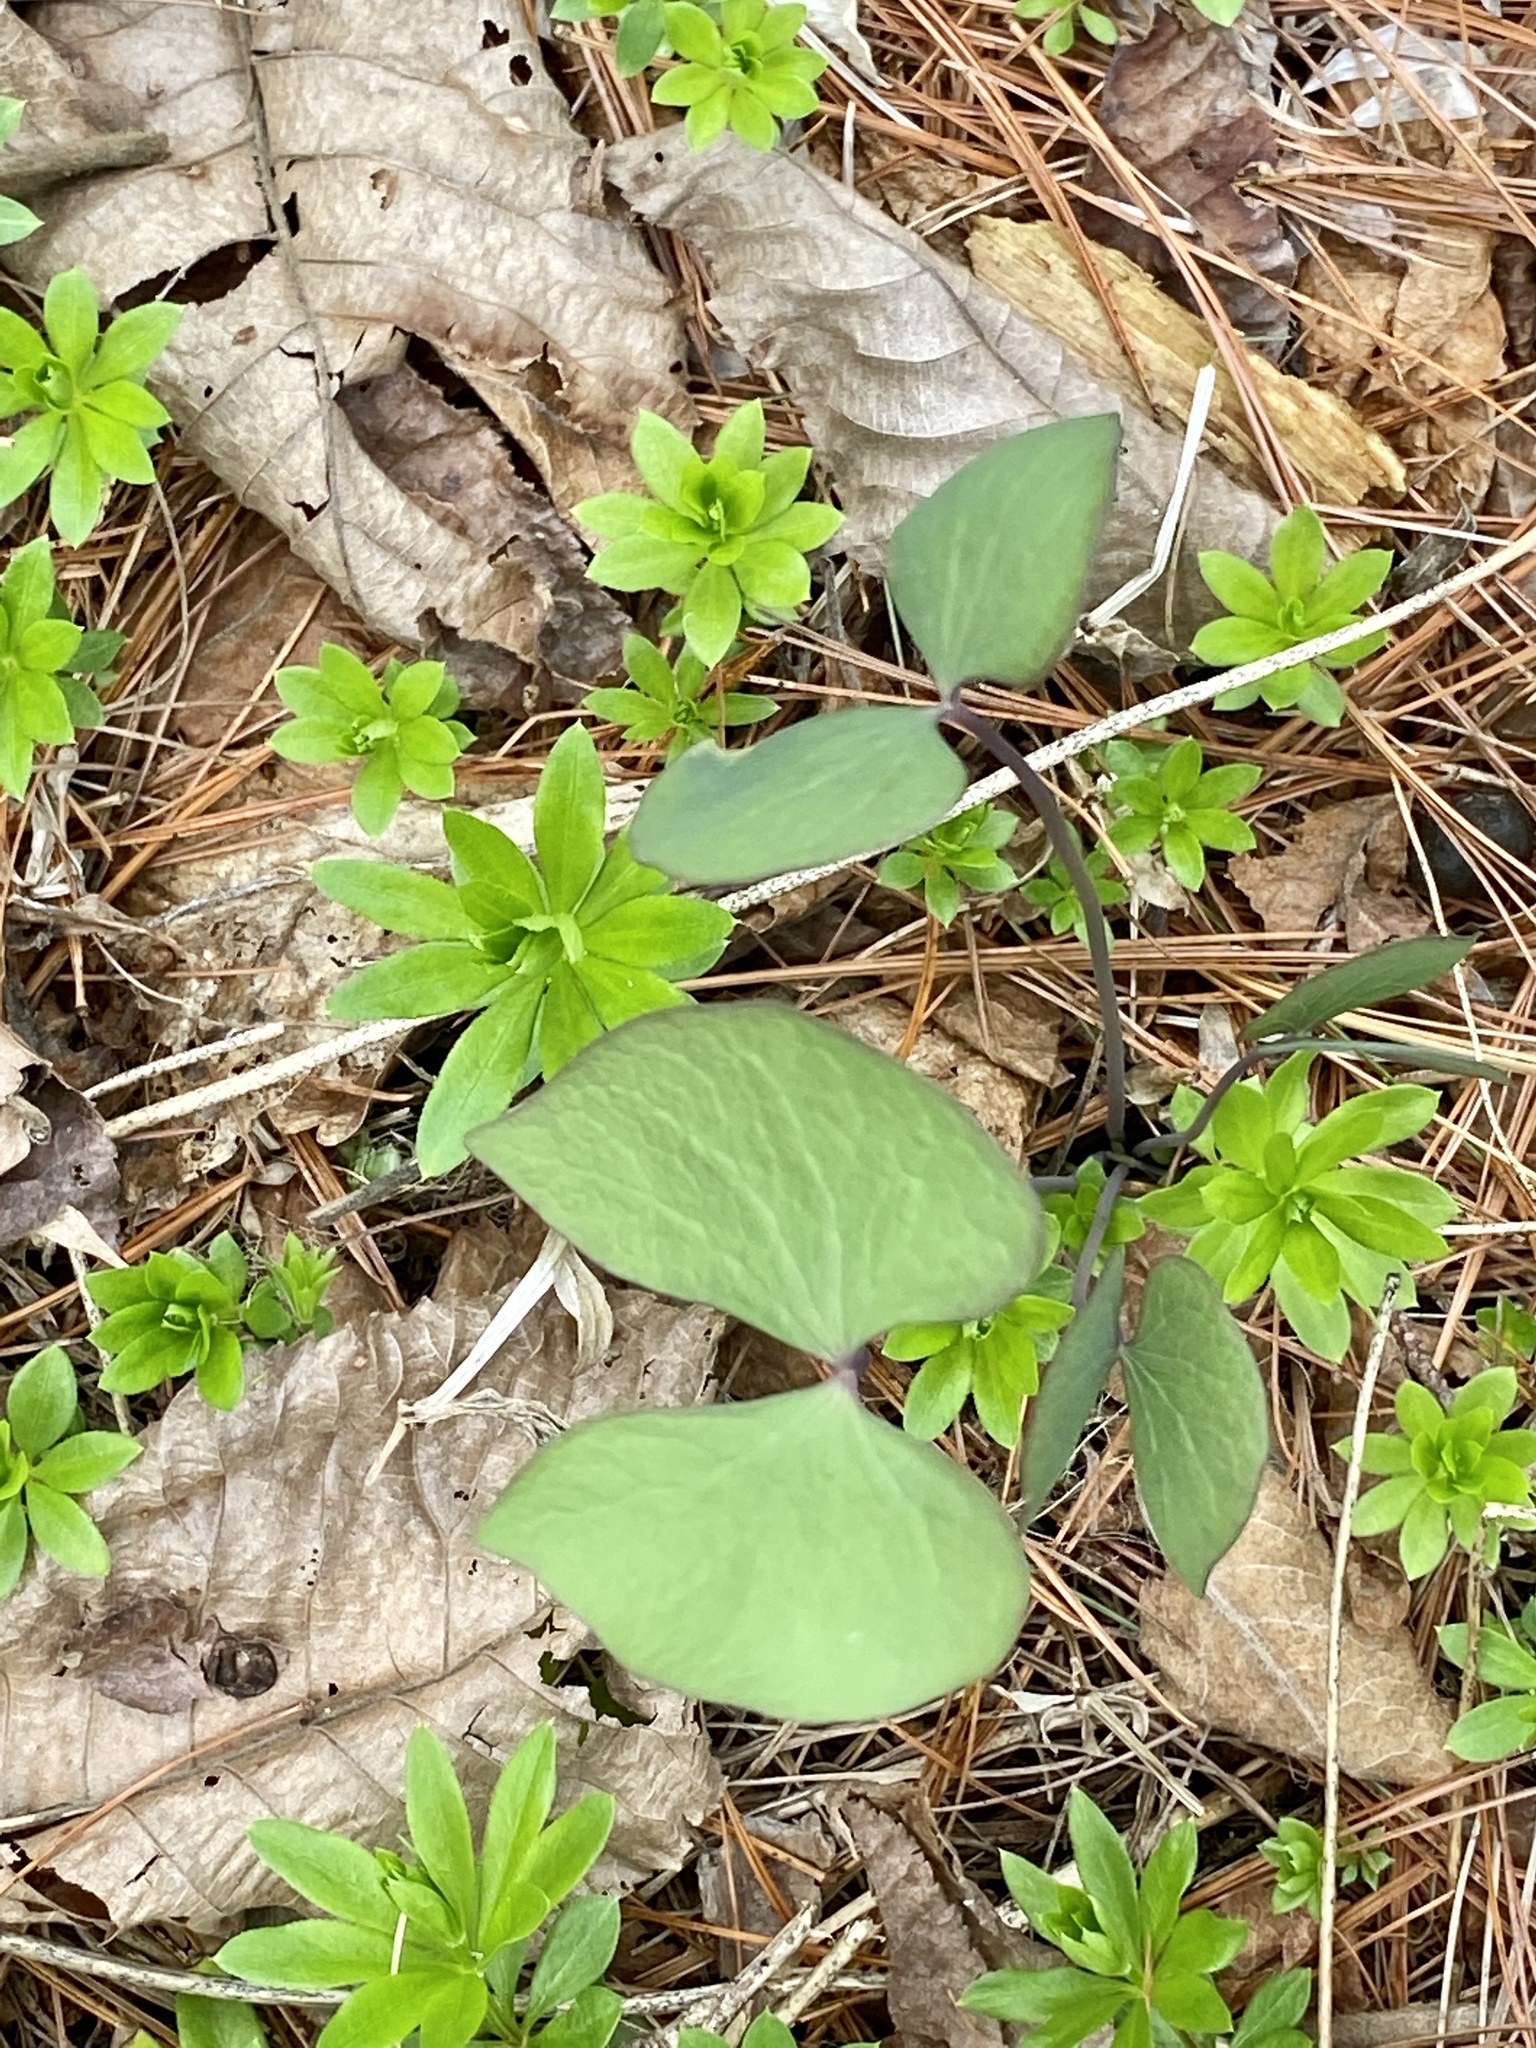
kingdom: Plantae
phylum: Tracheophyta
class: Magnoliopsida
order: Ranunculales
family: Berberidaceae
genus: Jeffersonia
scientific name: Jeffersonia diphylla
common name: Rheumatism-root
